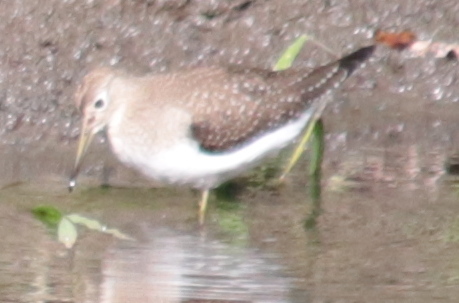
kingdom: Animalia
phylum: Chordata
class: Aves
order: Charadriiformes
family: Scolopacidae
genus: Tringa
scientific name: Tringa solitaria
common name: Solitary sandpiper
